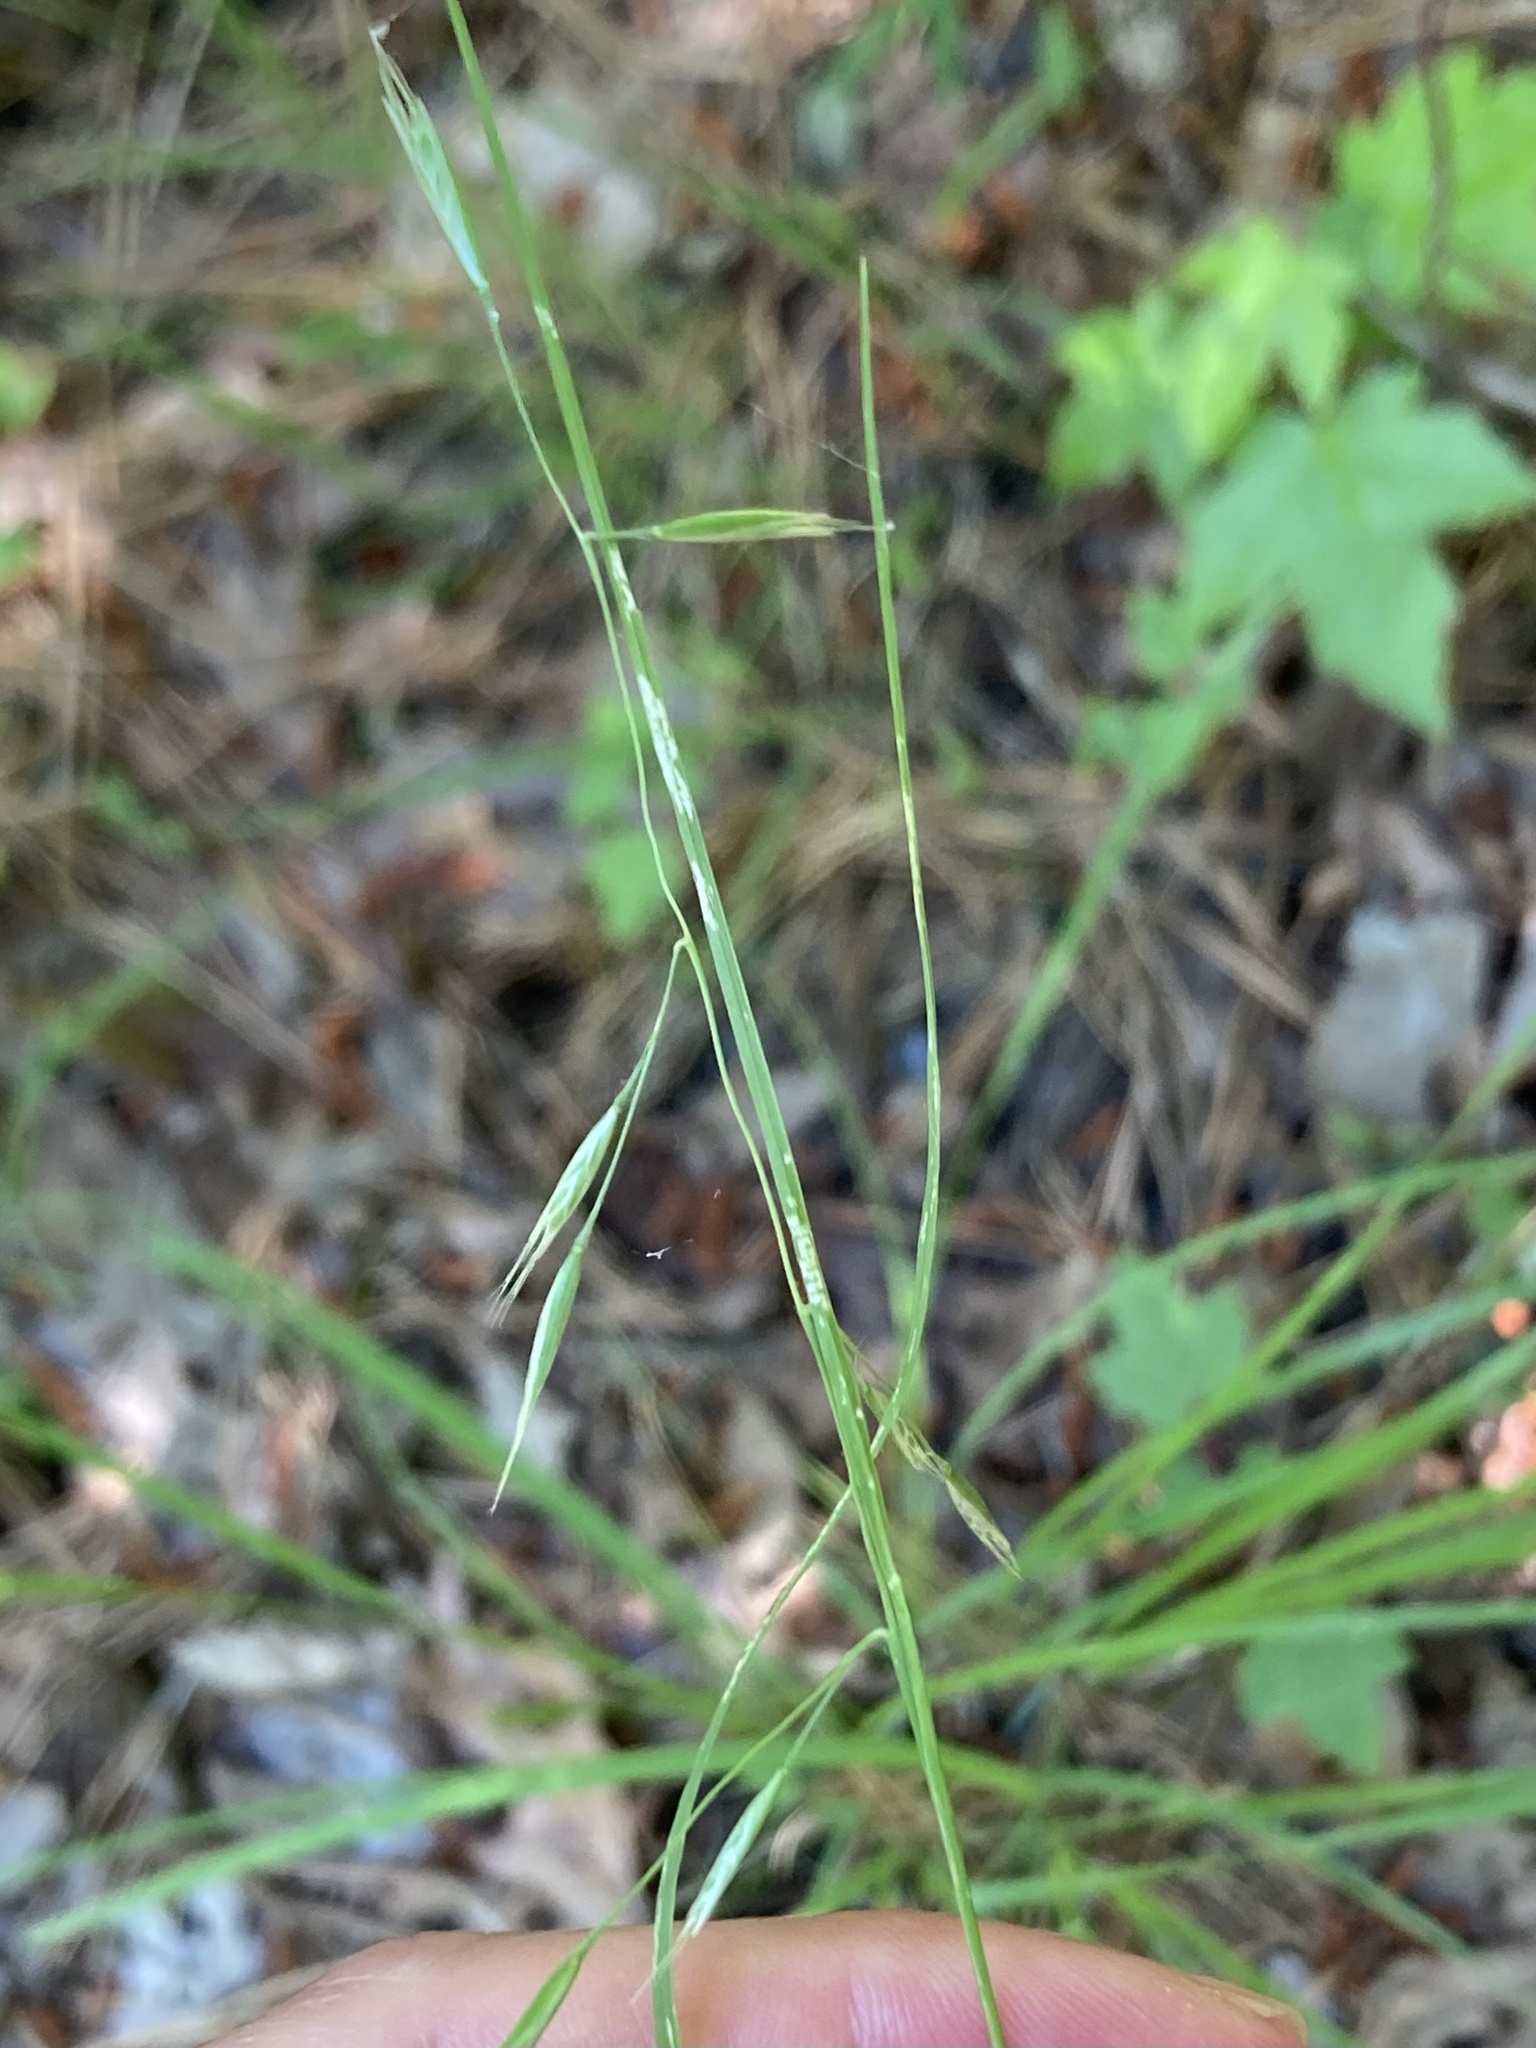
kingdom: Plantae
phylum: Tracheophyta
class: Liliopsida
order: Poales
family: Poaceae
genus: Danthonia
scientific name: Danthonia compressa
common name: Flat-stem oat grass
